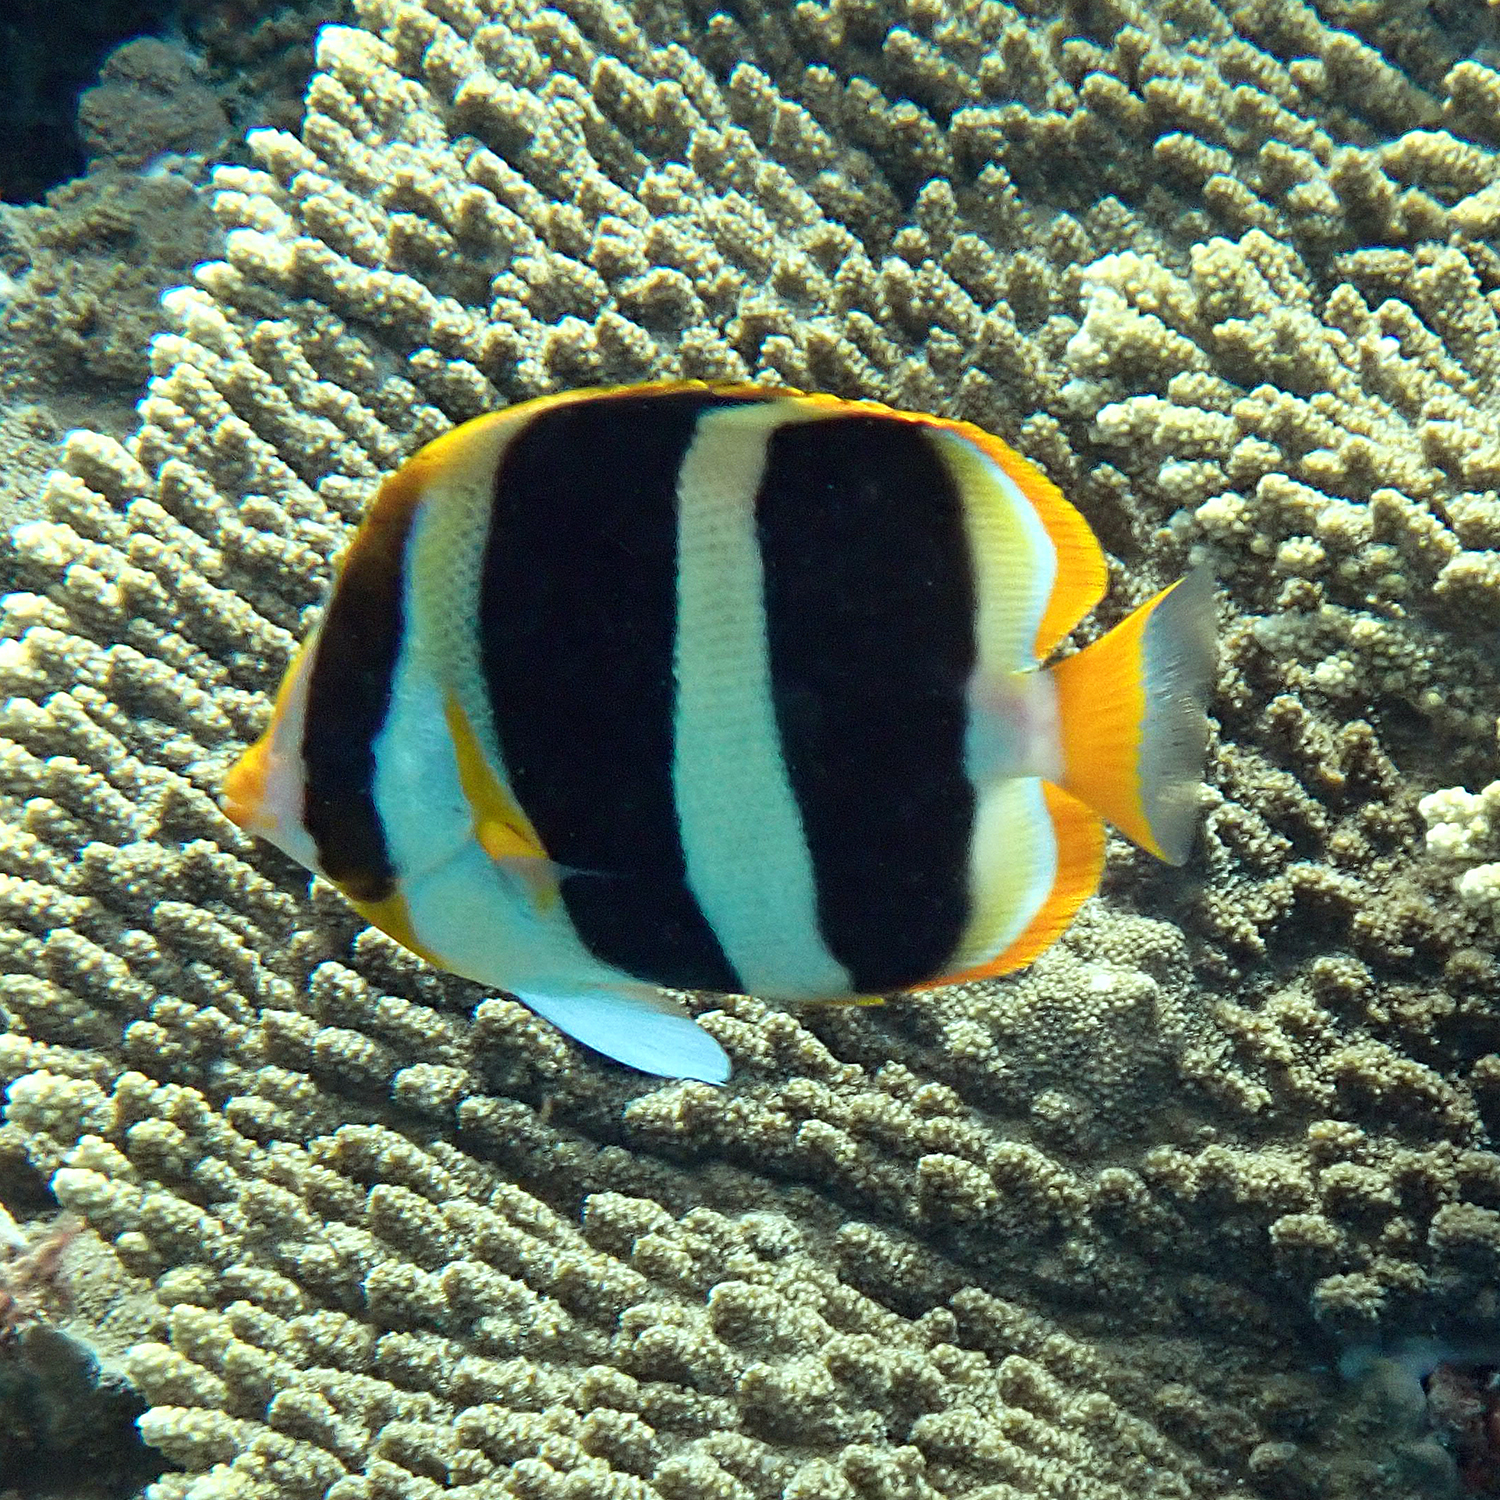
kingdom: Animalia
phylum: Chordata
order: Perciformes
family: Chaetodontidae
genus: Chaetodon
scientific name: Chaetodon tricinctus
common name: Three-striped butterflyfish
